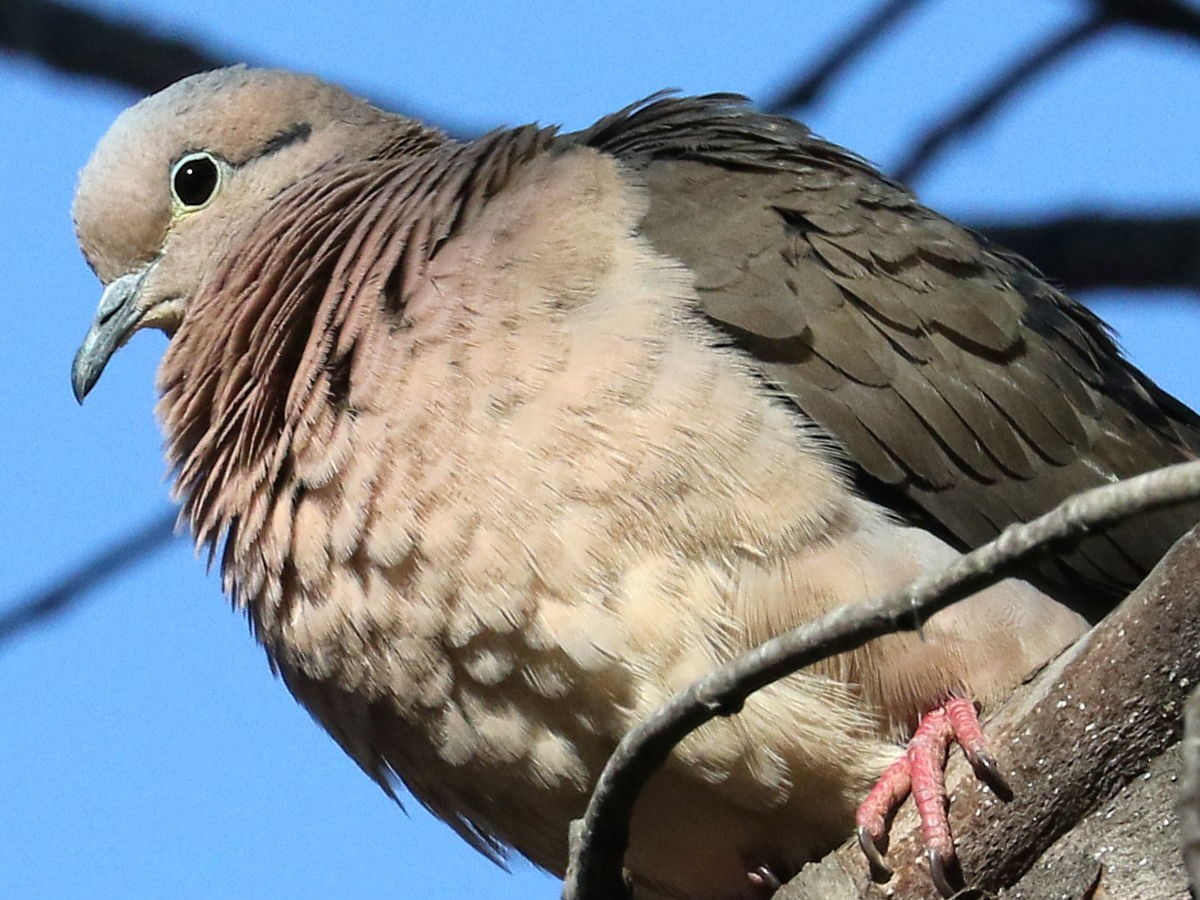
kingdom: Animalia
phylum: Chordata
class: Aves
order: Columbiformes
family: Columbidae
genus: Zenaida
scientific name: Zenaida auriculata
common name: Eared dove
